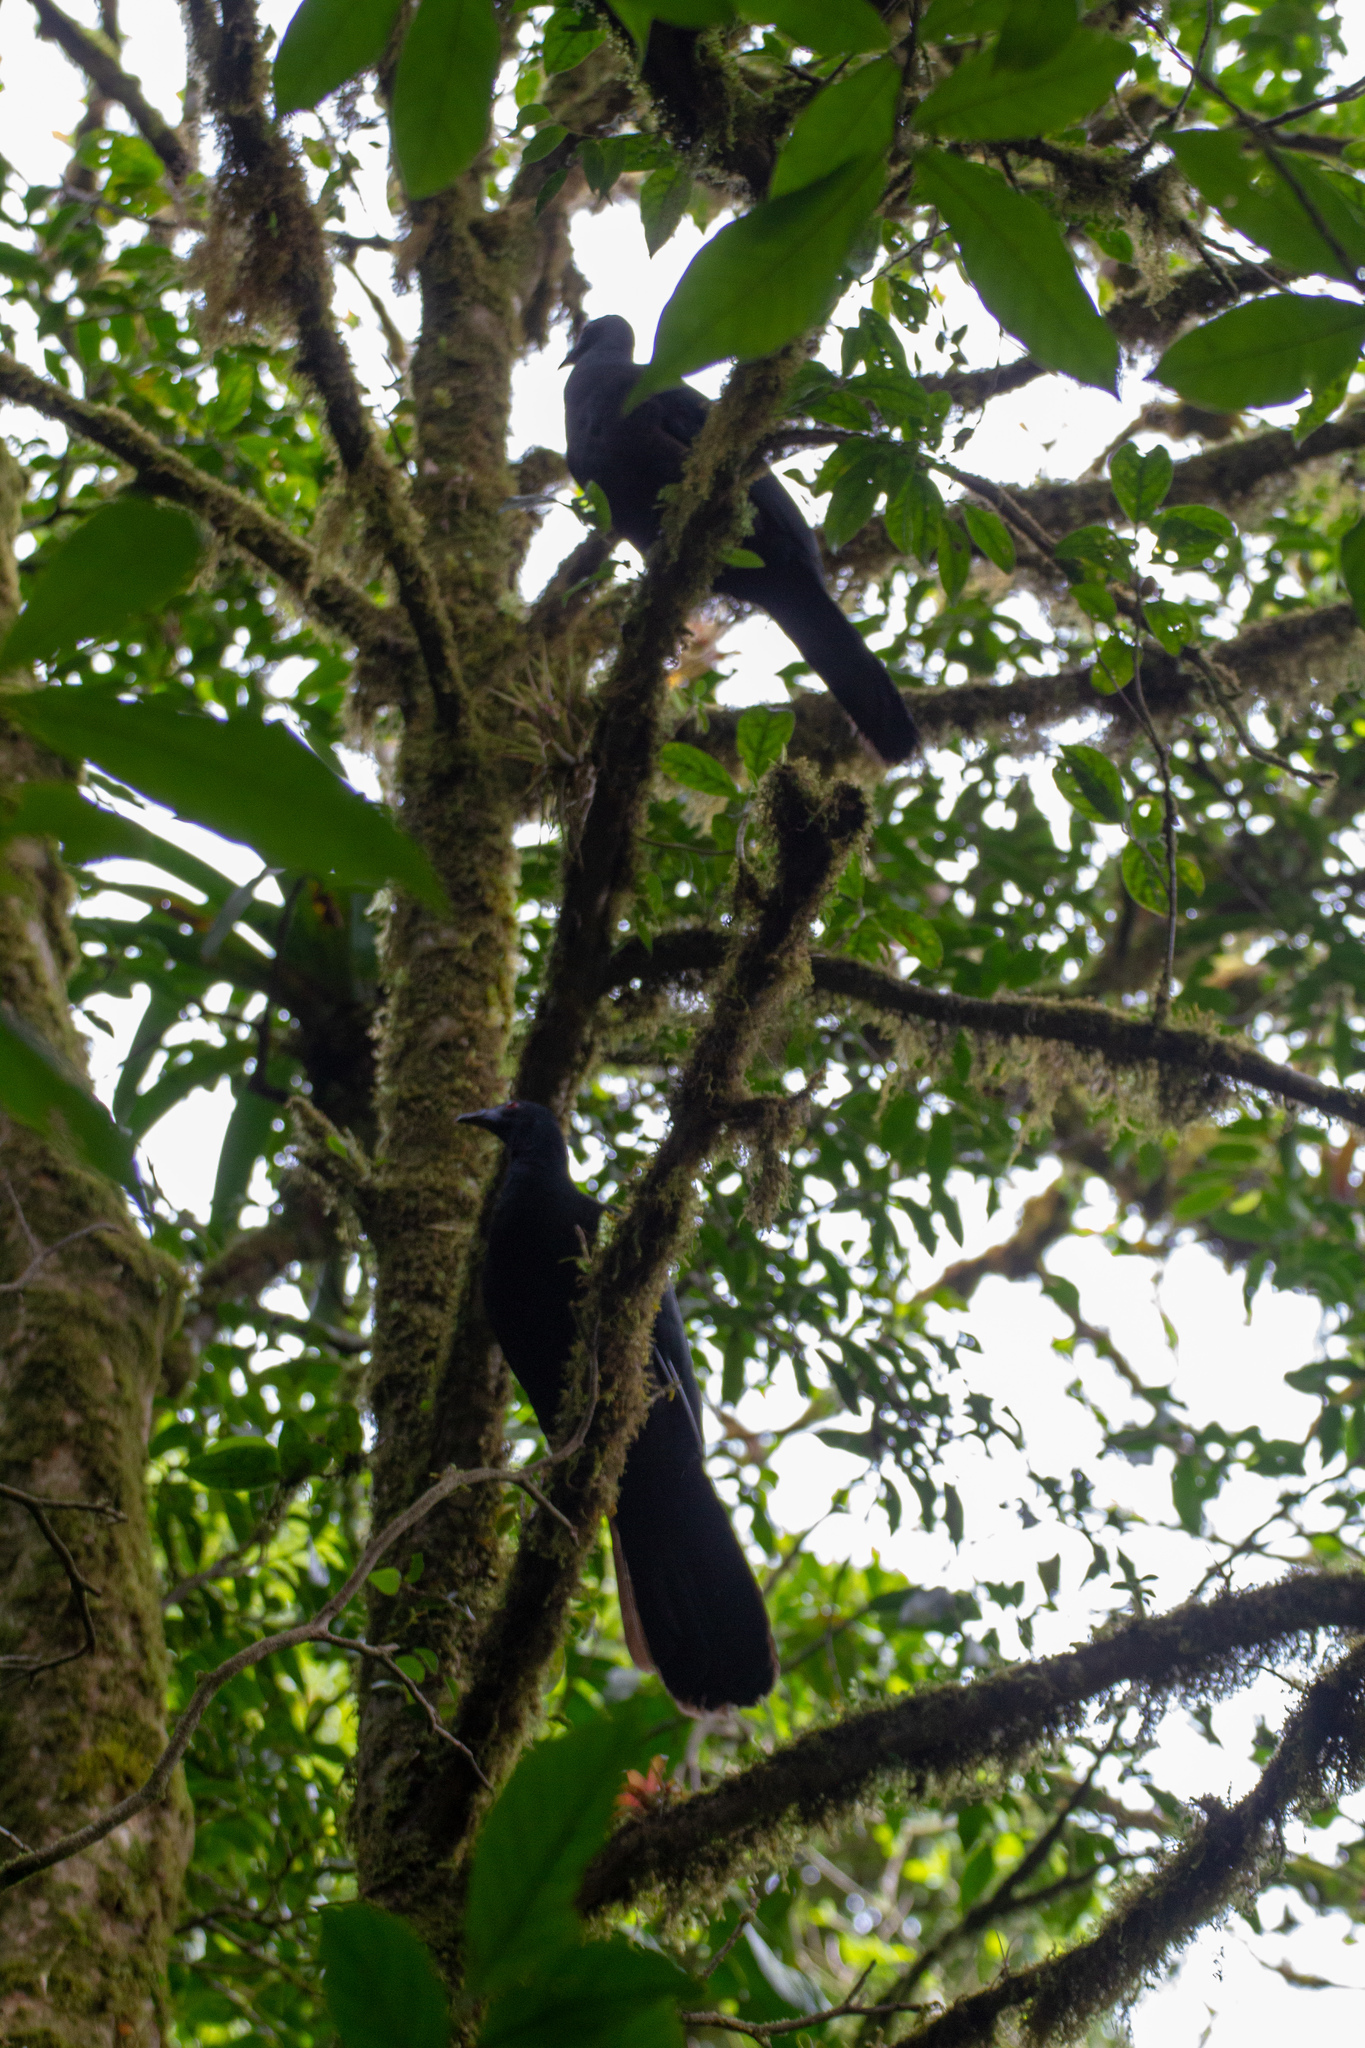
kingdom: Animalia
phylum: Chordata
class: Aves
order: Galliformes
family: Cracidae
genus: Chamaepetes
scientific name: Chamaepetes unicolor
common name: Black guan
